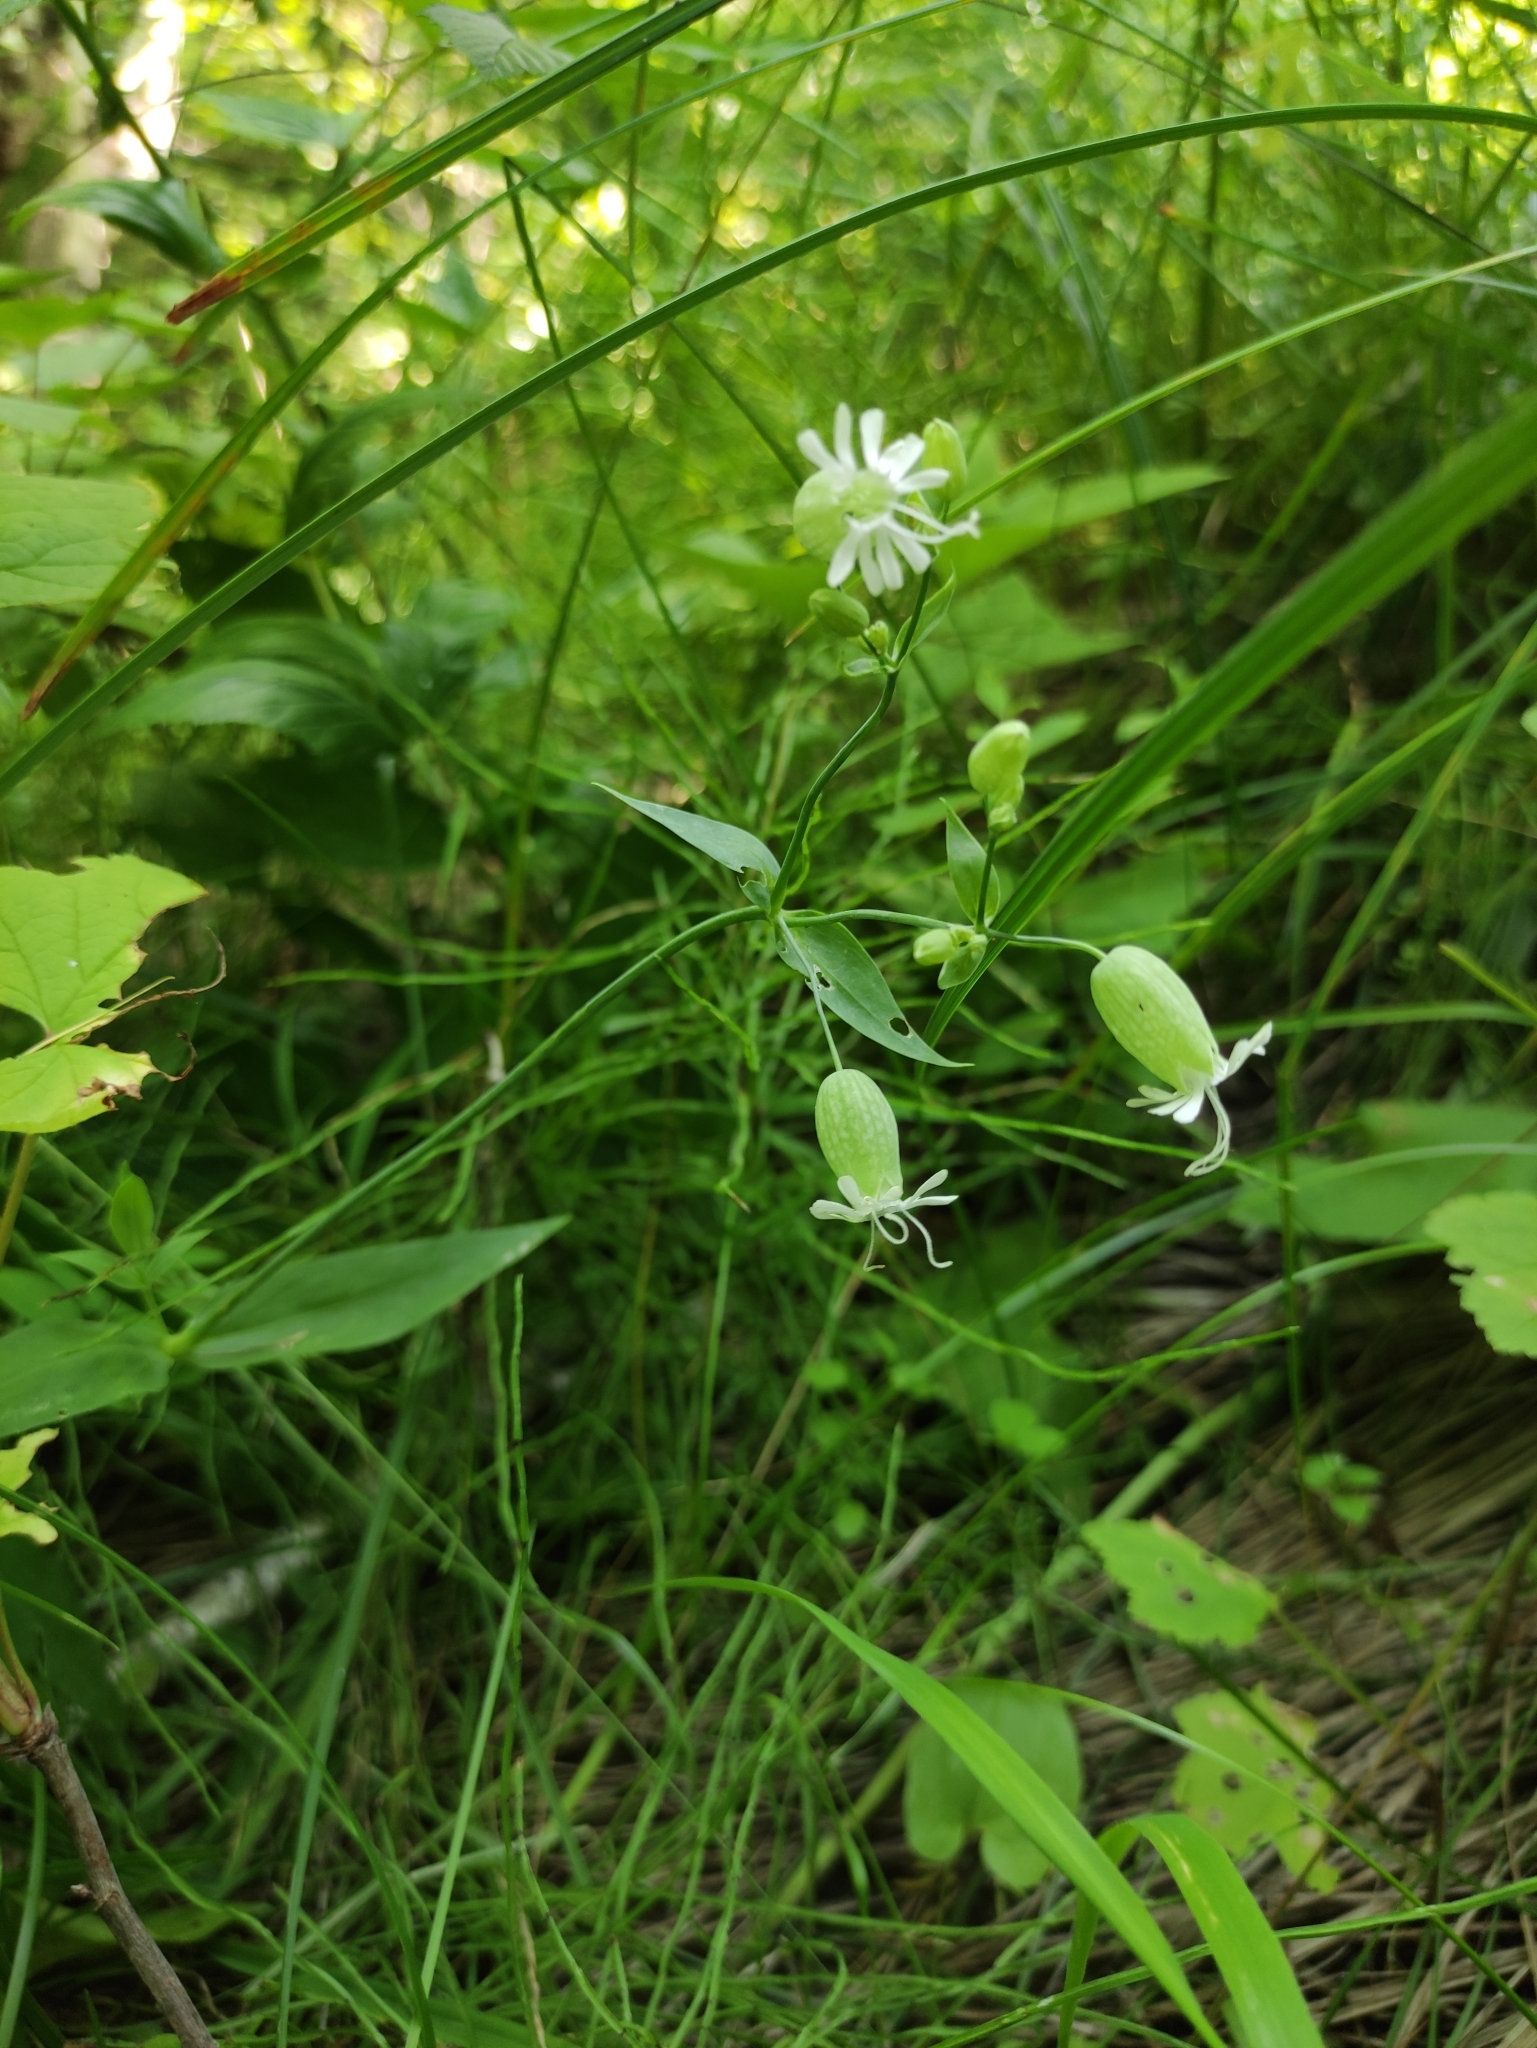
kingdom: Plantae
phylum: Tracheophyta
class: Magnoliopsida
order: Caryophyllales
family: Caryophyllaceae
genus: Silene
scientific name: Silene vulgaris
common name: Bladder campion
